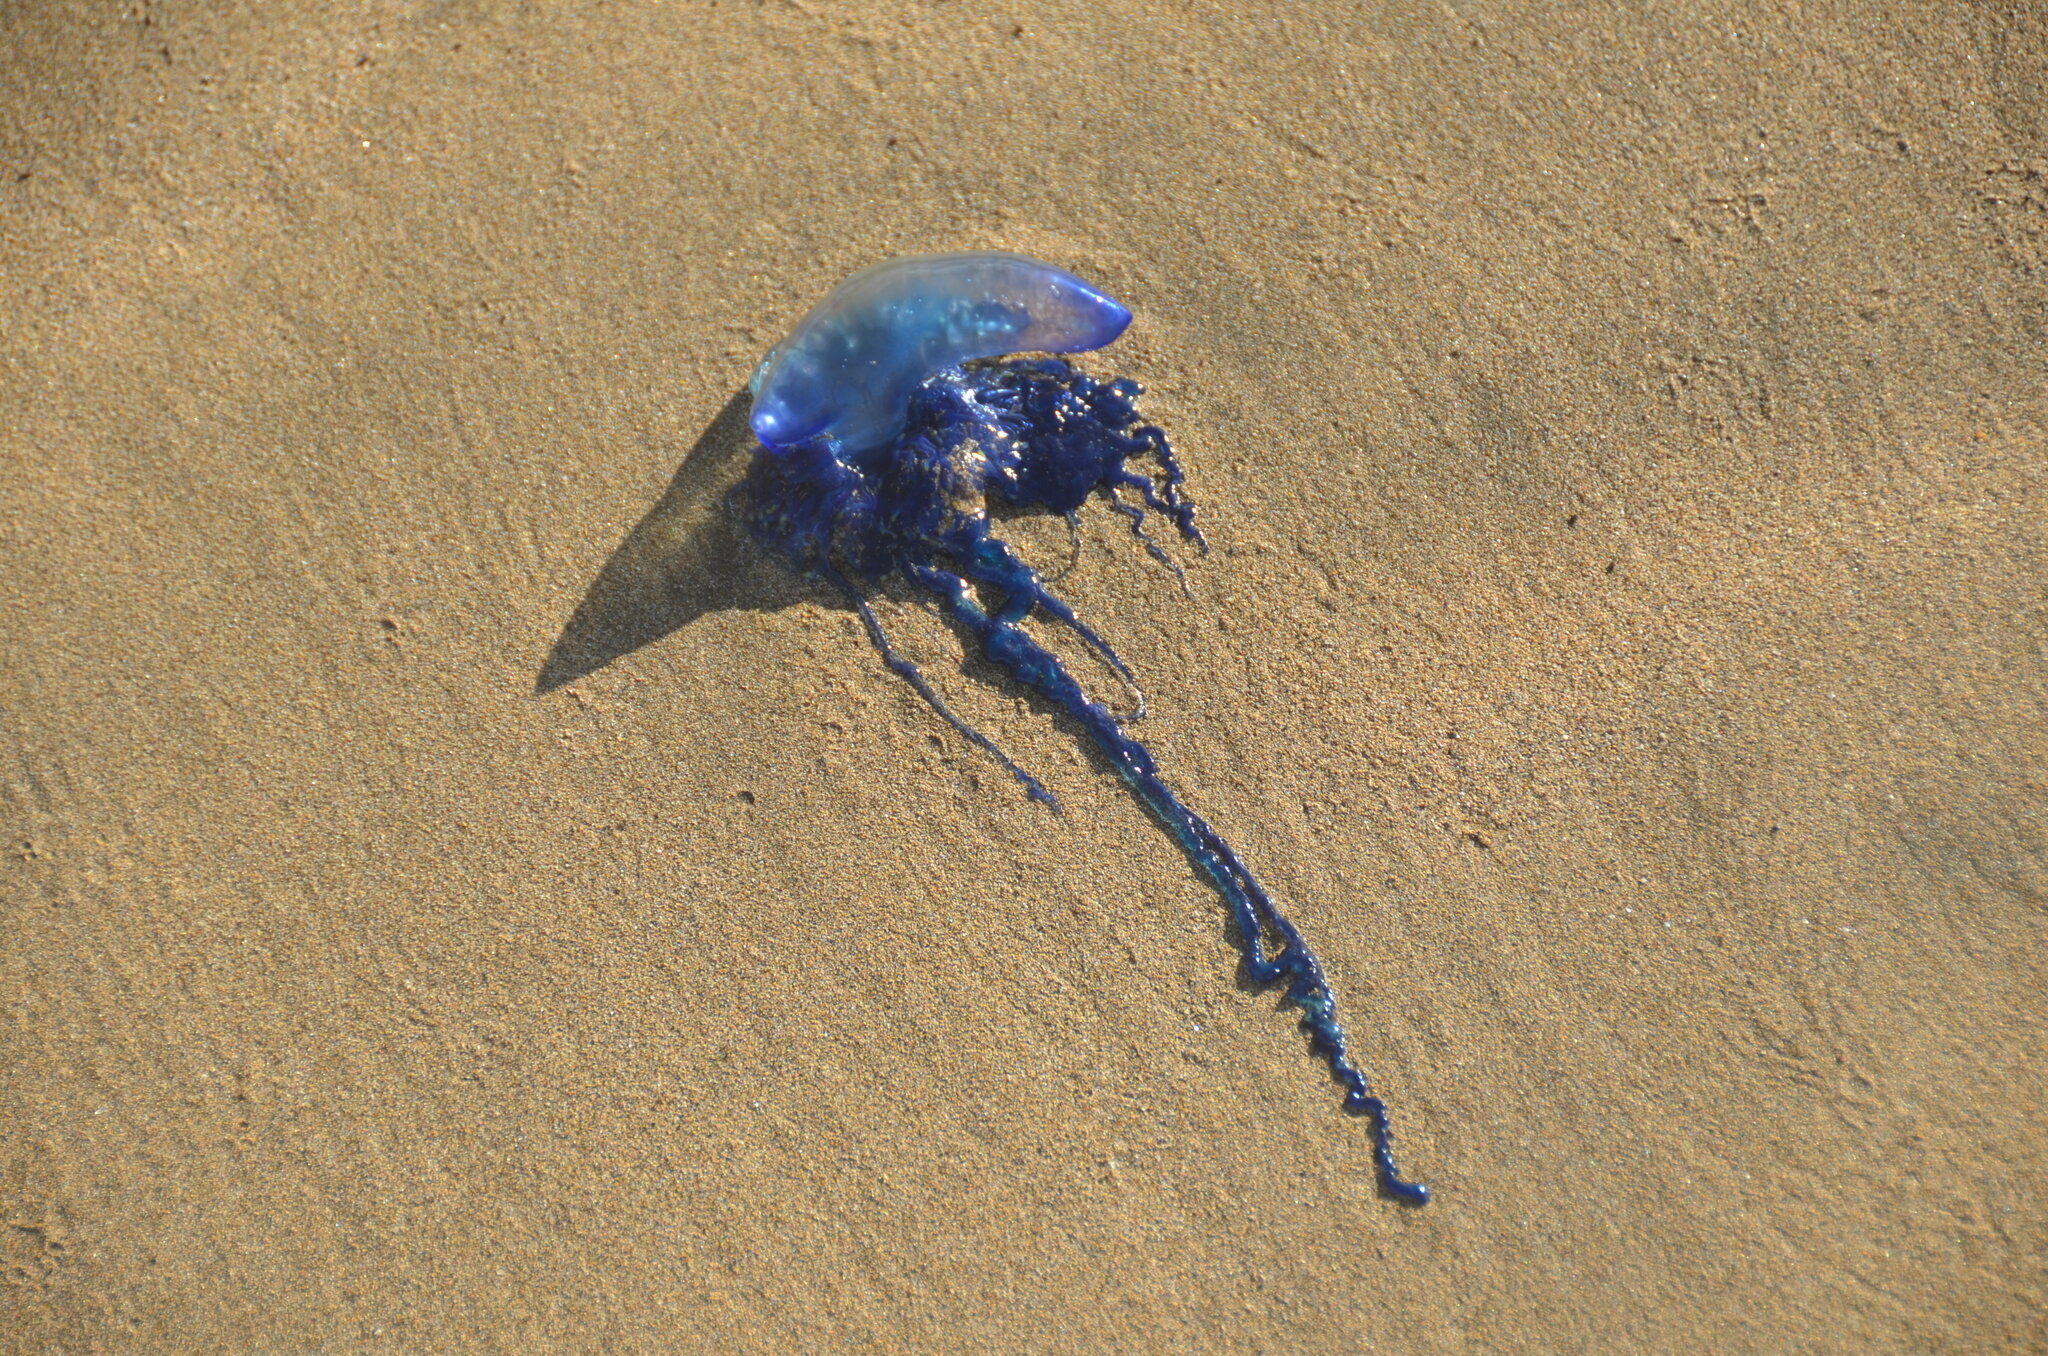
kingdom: Animalia
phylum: Cnidaria
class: Hydrozoa
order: Siphonophorae
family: Physaliidae
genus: Physalia
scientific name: Physalia physalis
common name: Portuguese man-of-war
